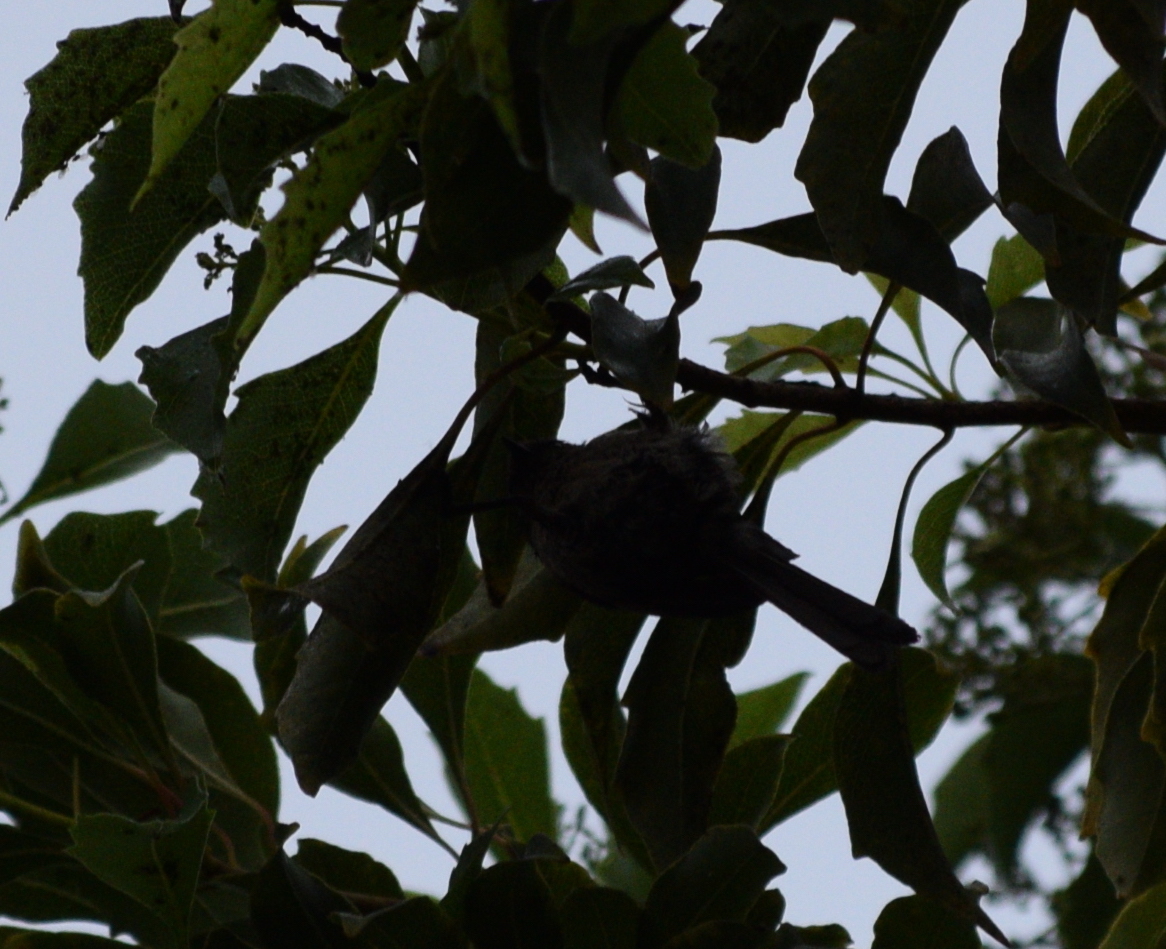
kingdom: Animalia
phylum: Chordata
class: Aves
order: Passeriformes
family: Aegithalidae
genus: Psaltriparus
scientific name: Psaltriparus minimus
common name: American bushtit
